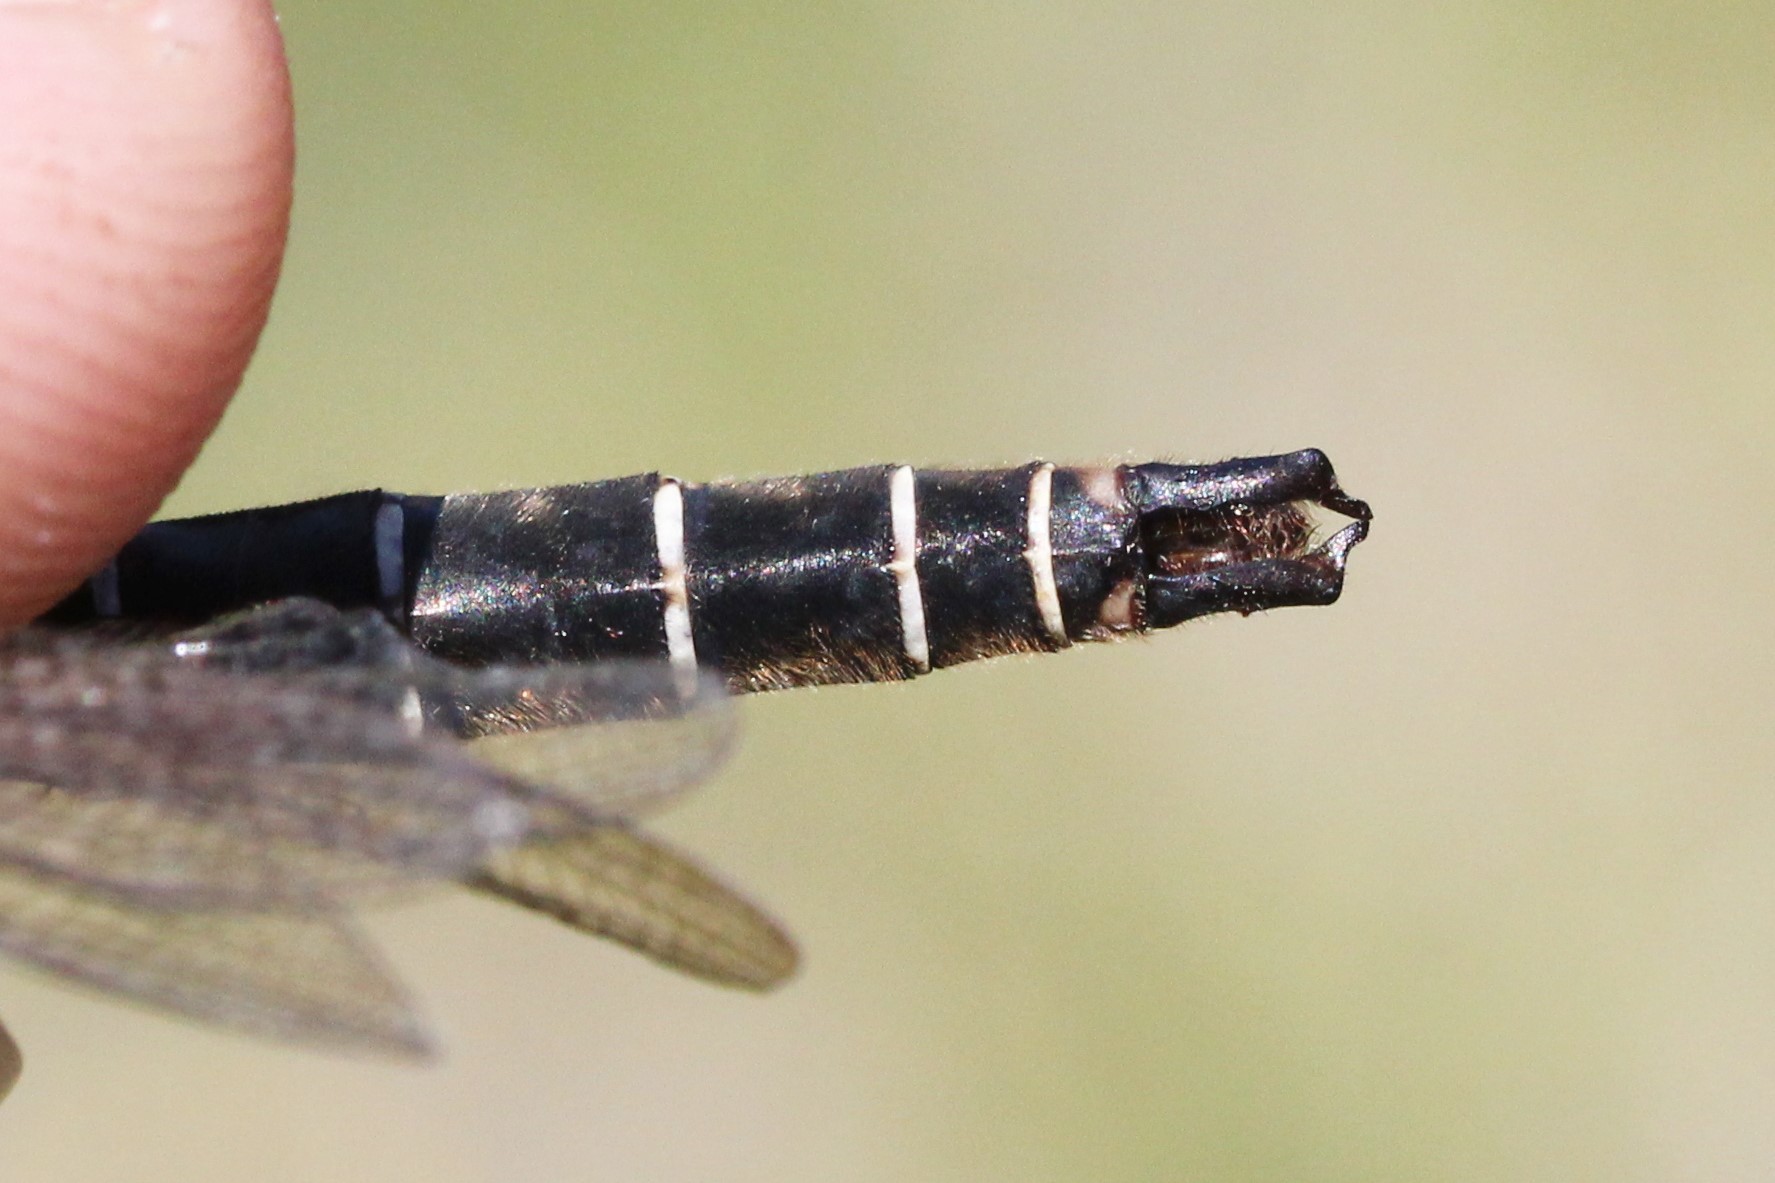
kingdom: Animalia
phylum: Arthropoda
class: Insecta
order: Odonata
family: Corduliidae
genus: Somatochlora
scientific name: Somatochlora albicincta
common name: Ringed emerald
